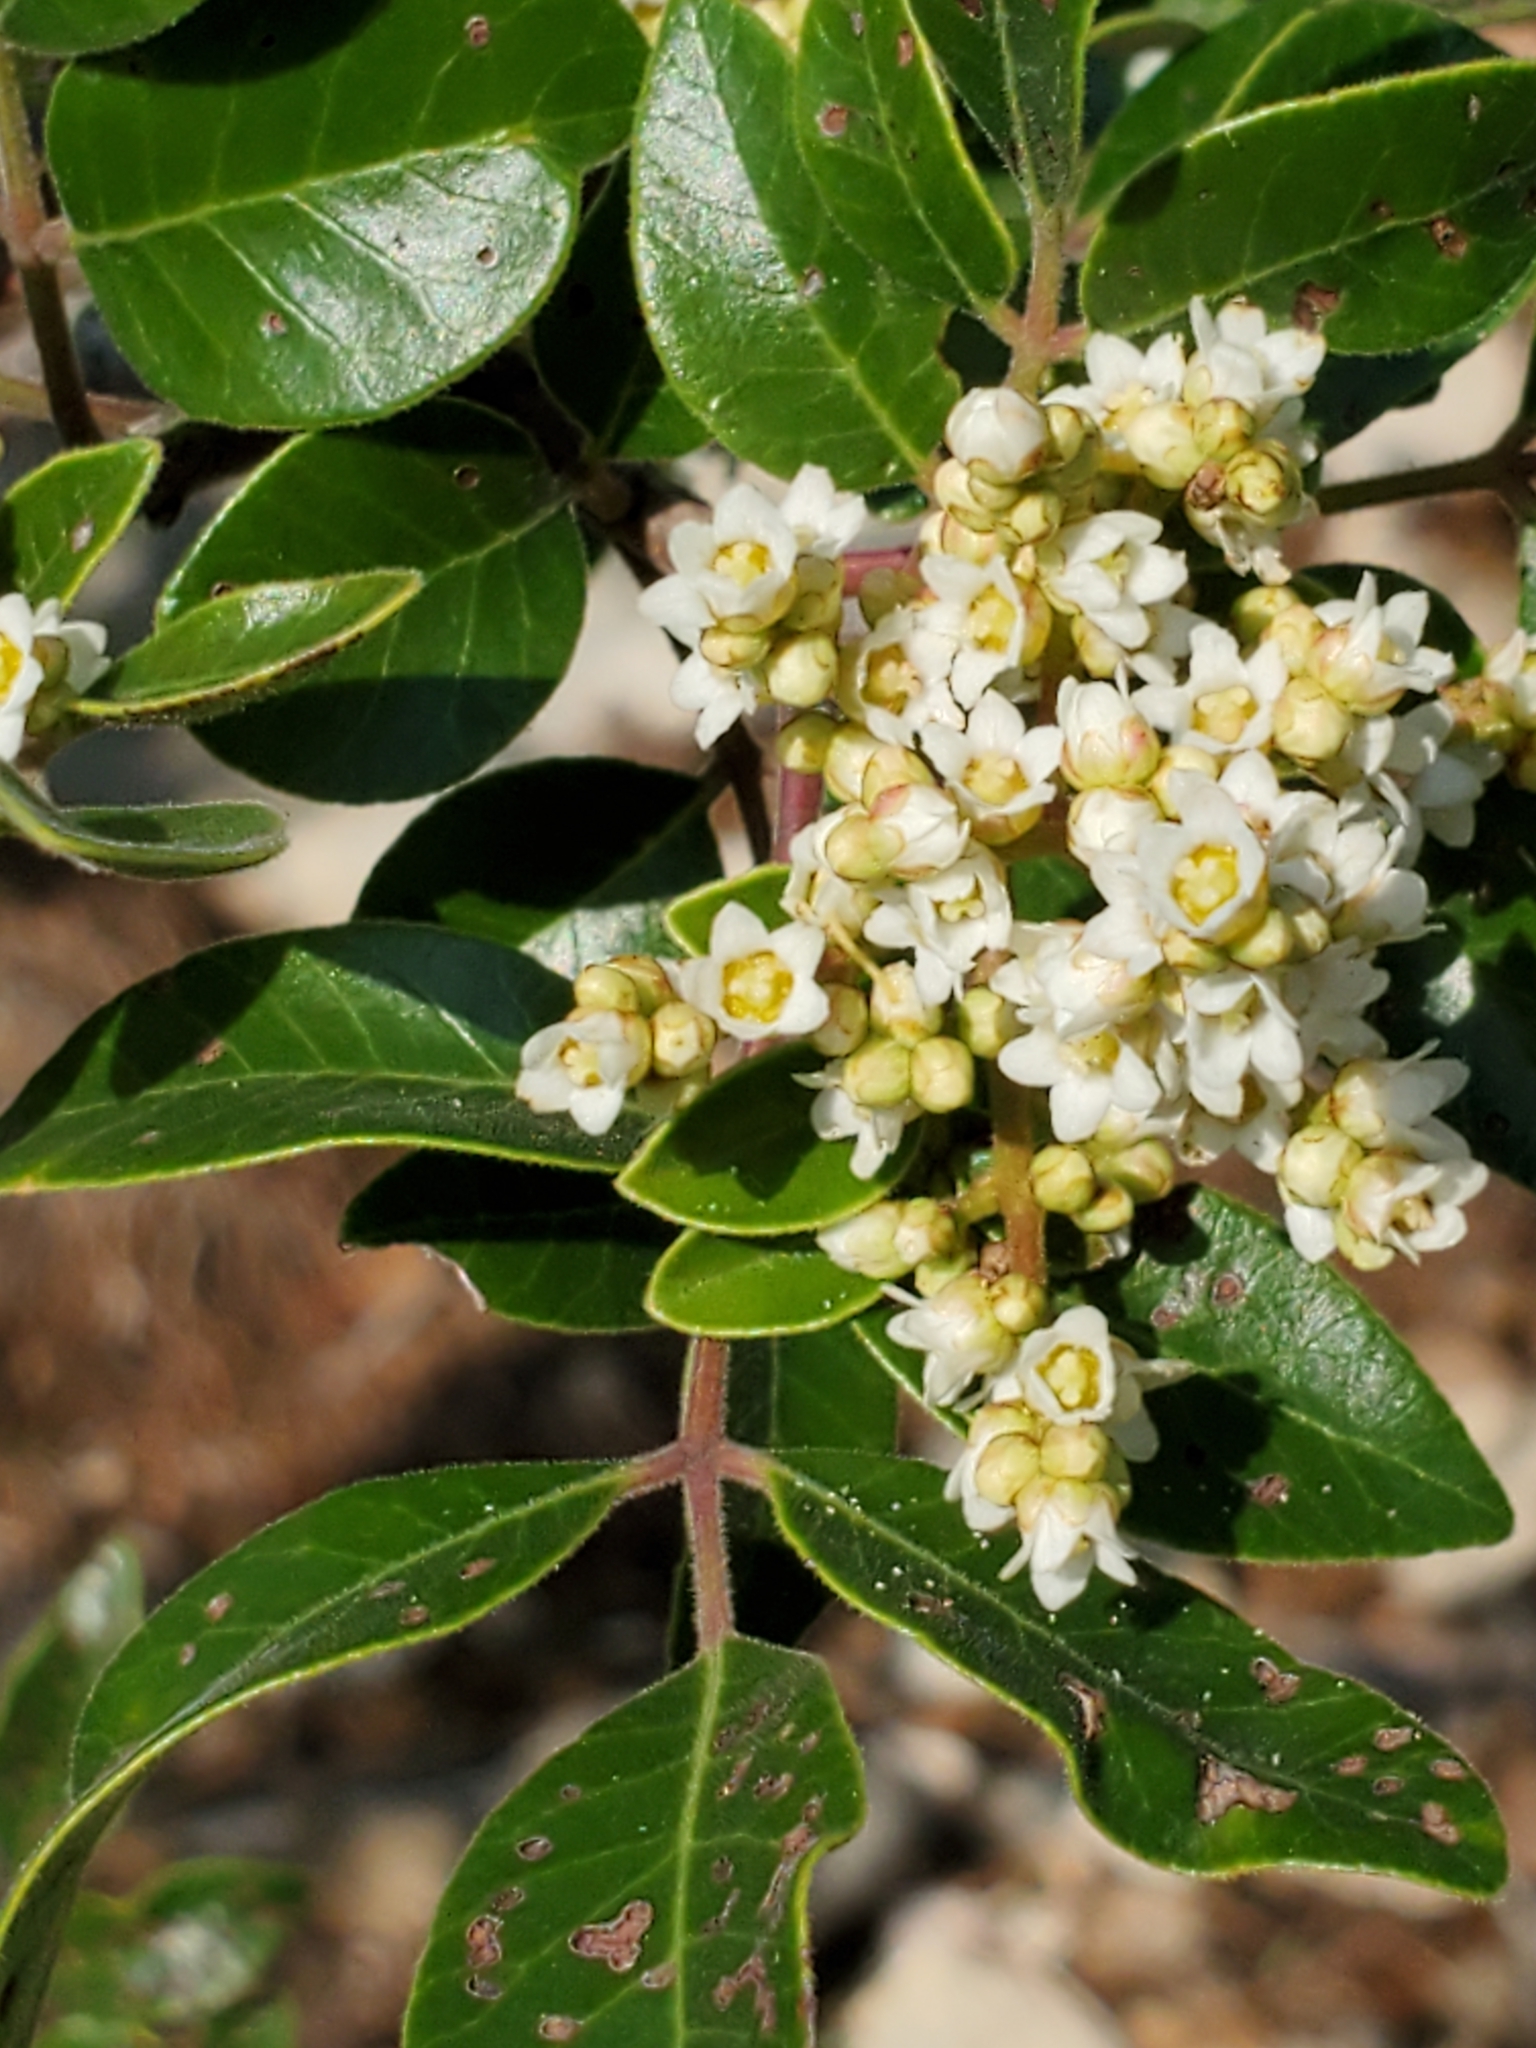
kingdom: Plantae
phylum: Tracheophyta
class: Magnoliopsida
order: Sapindales
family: Anacardiaceae
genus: Rhus
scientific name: Rhus virens
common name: Evergreen sumac
